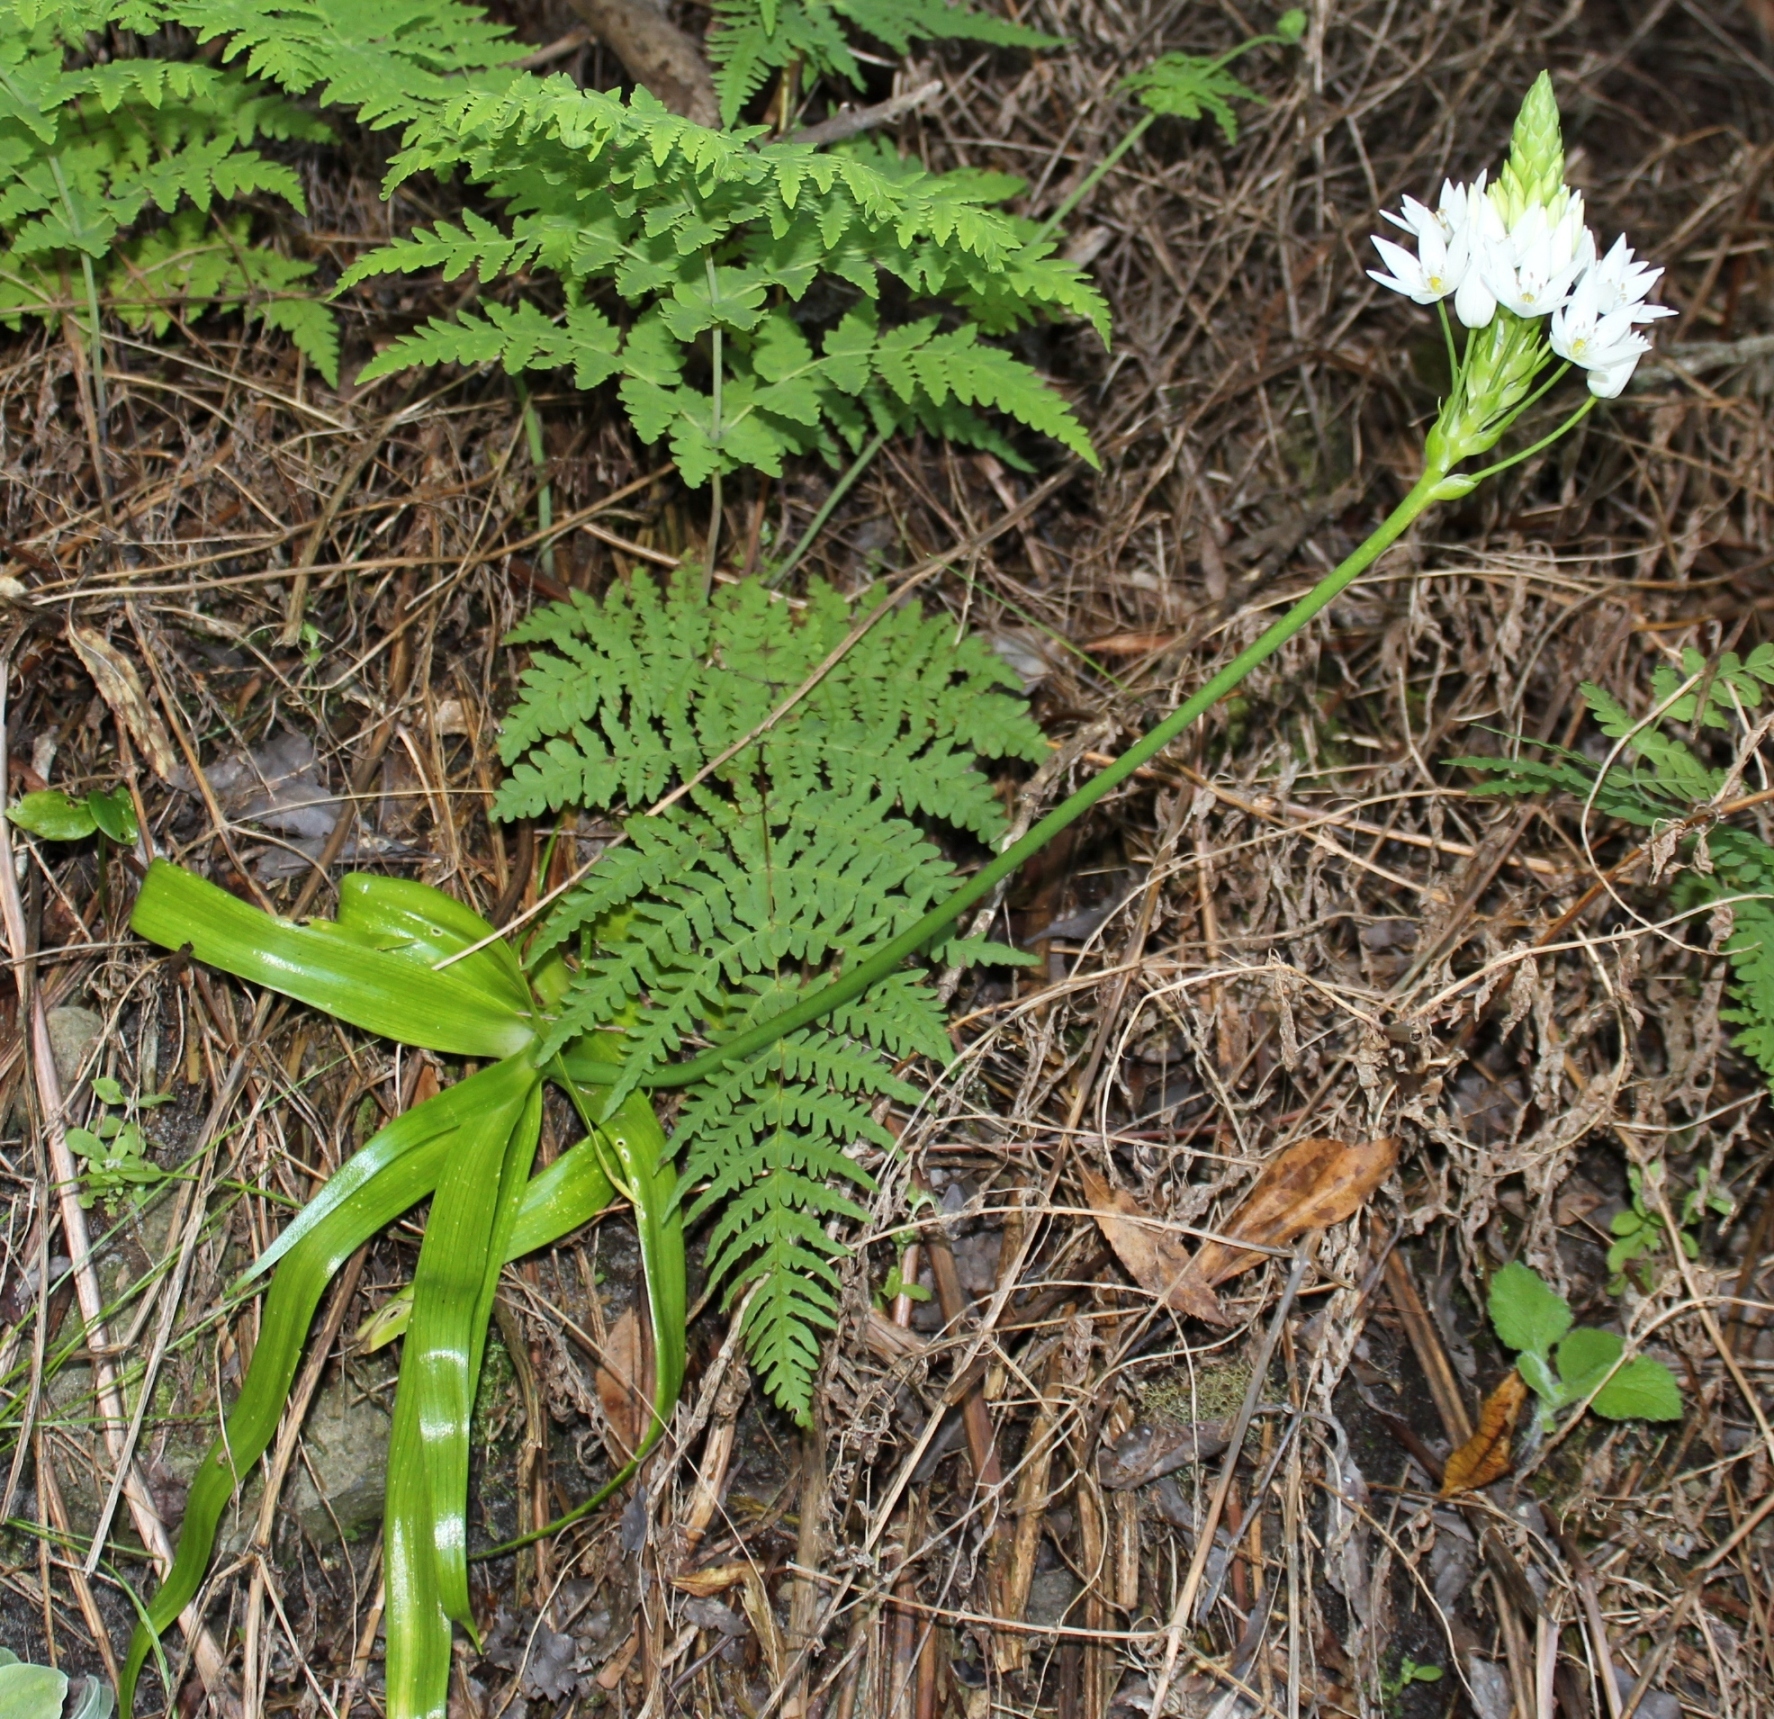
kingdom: Plantae
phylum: Tracheophyta
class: Liliopsida
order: Asparagales
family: Asparagaceae
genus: Ornithogalum
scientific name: Ornithogalum thyrsoides
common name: Chincherinchee
